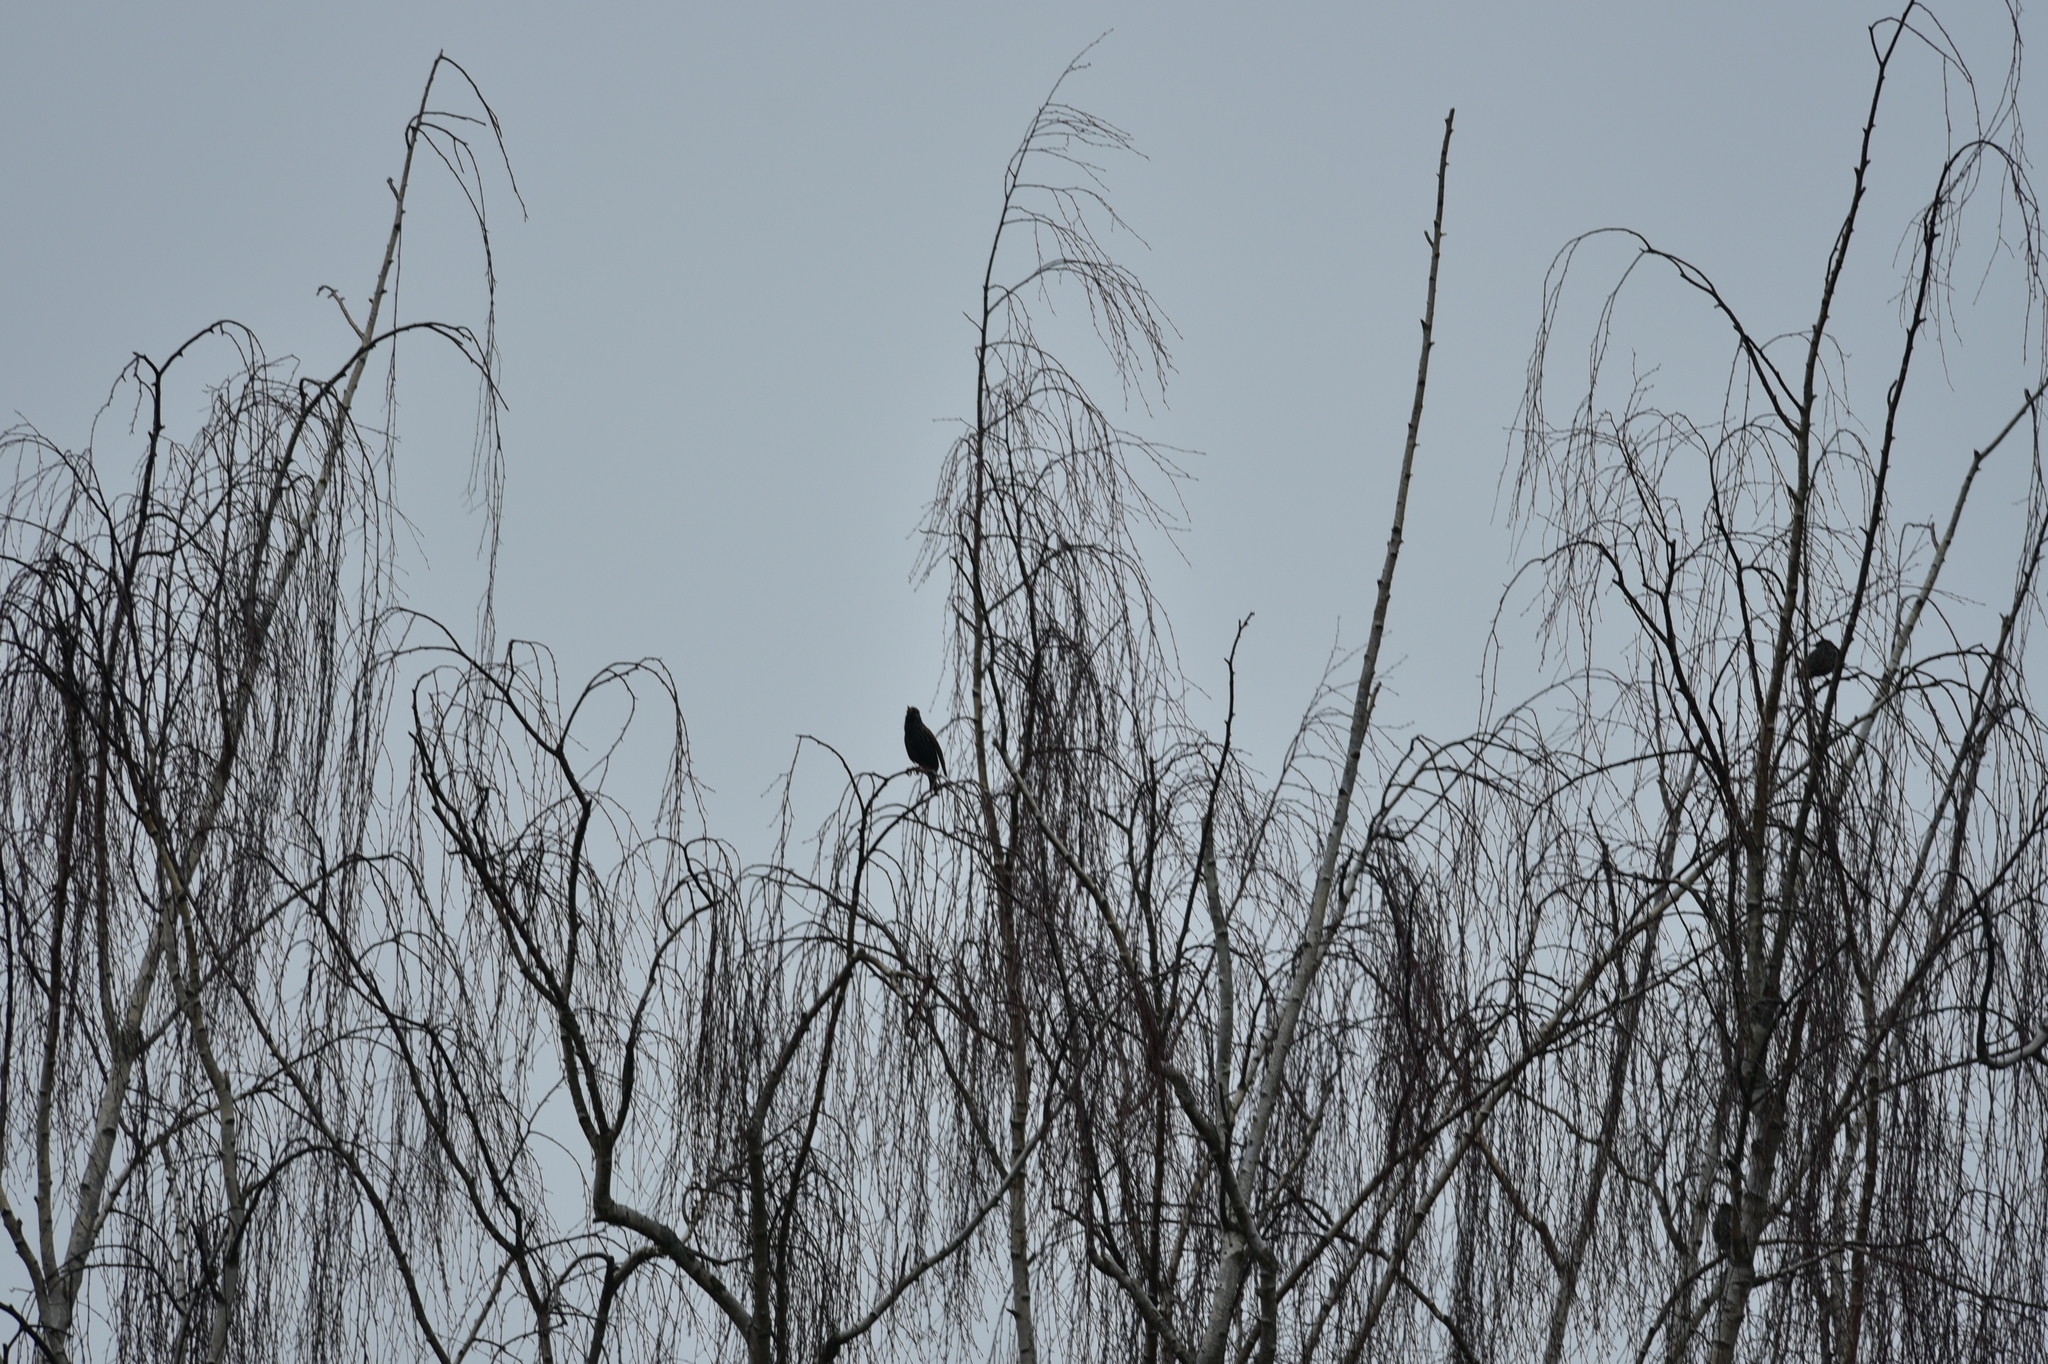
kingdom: Animalia
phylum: Chordata
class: Aves
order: Passeriformes
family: Sturnidae
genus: Sturnus
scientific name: Sturnus vulgaris
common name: Common starling
